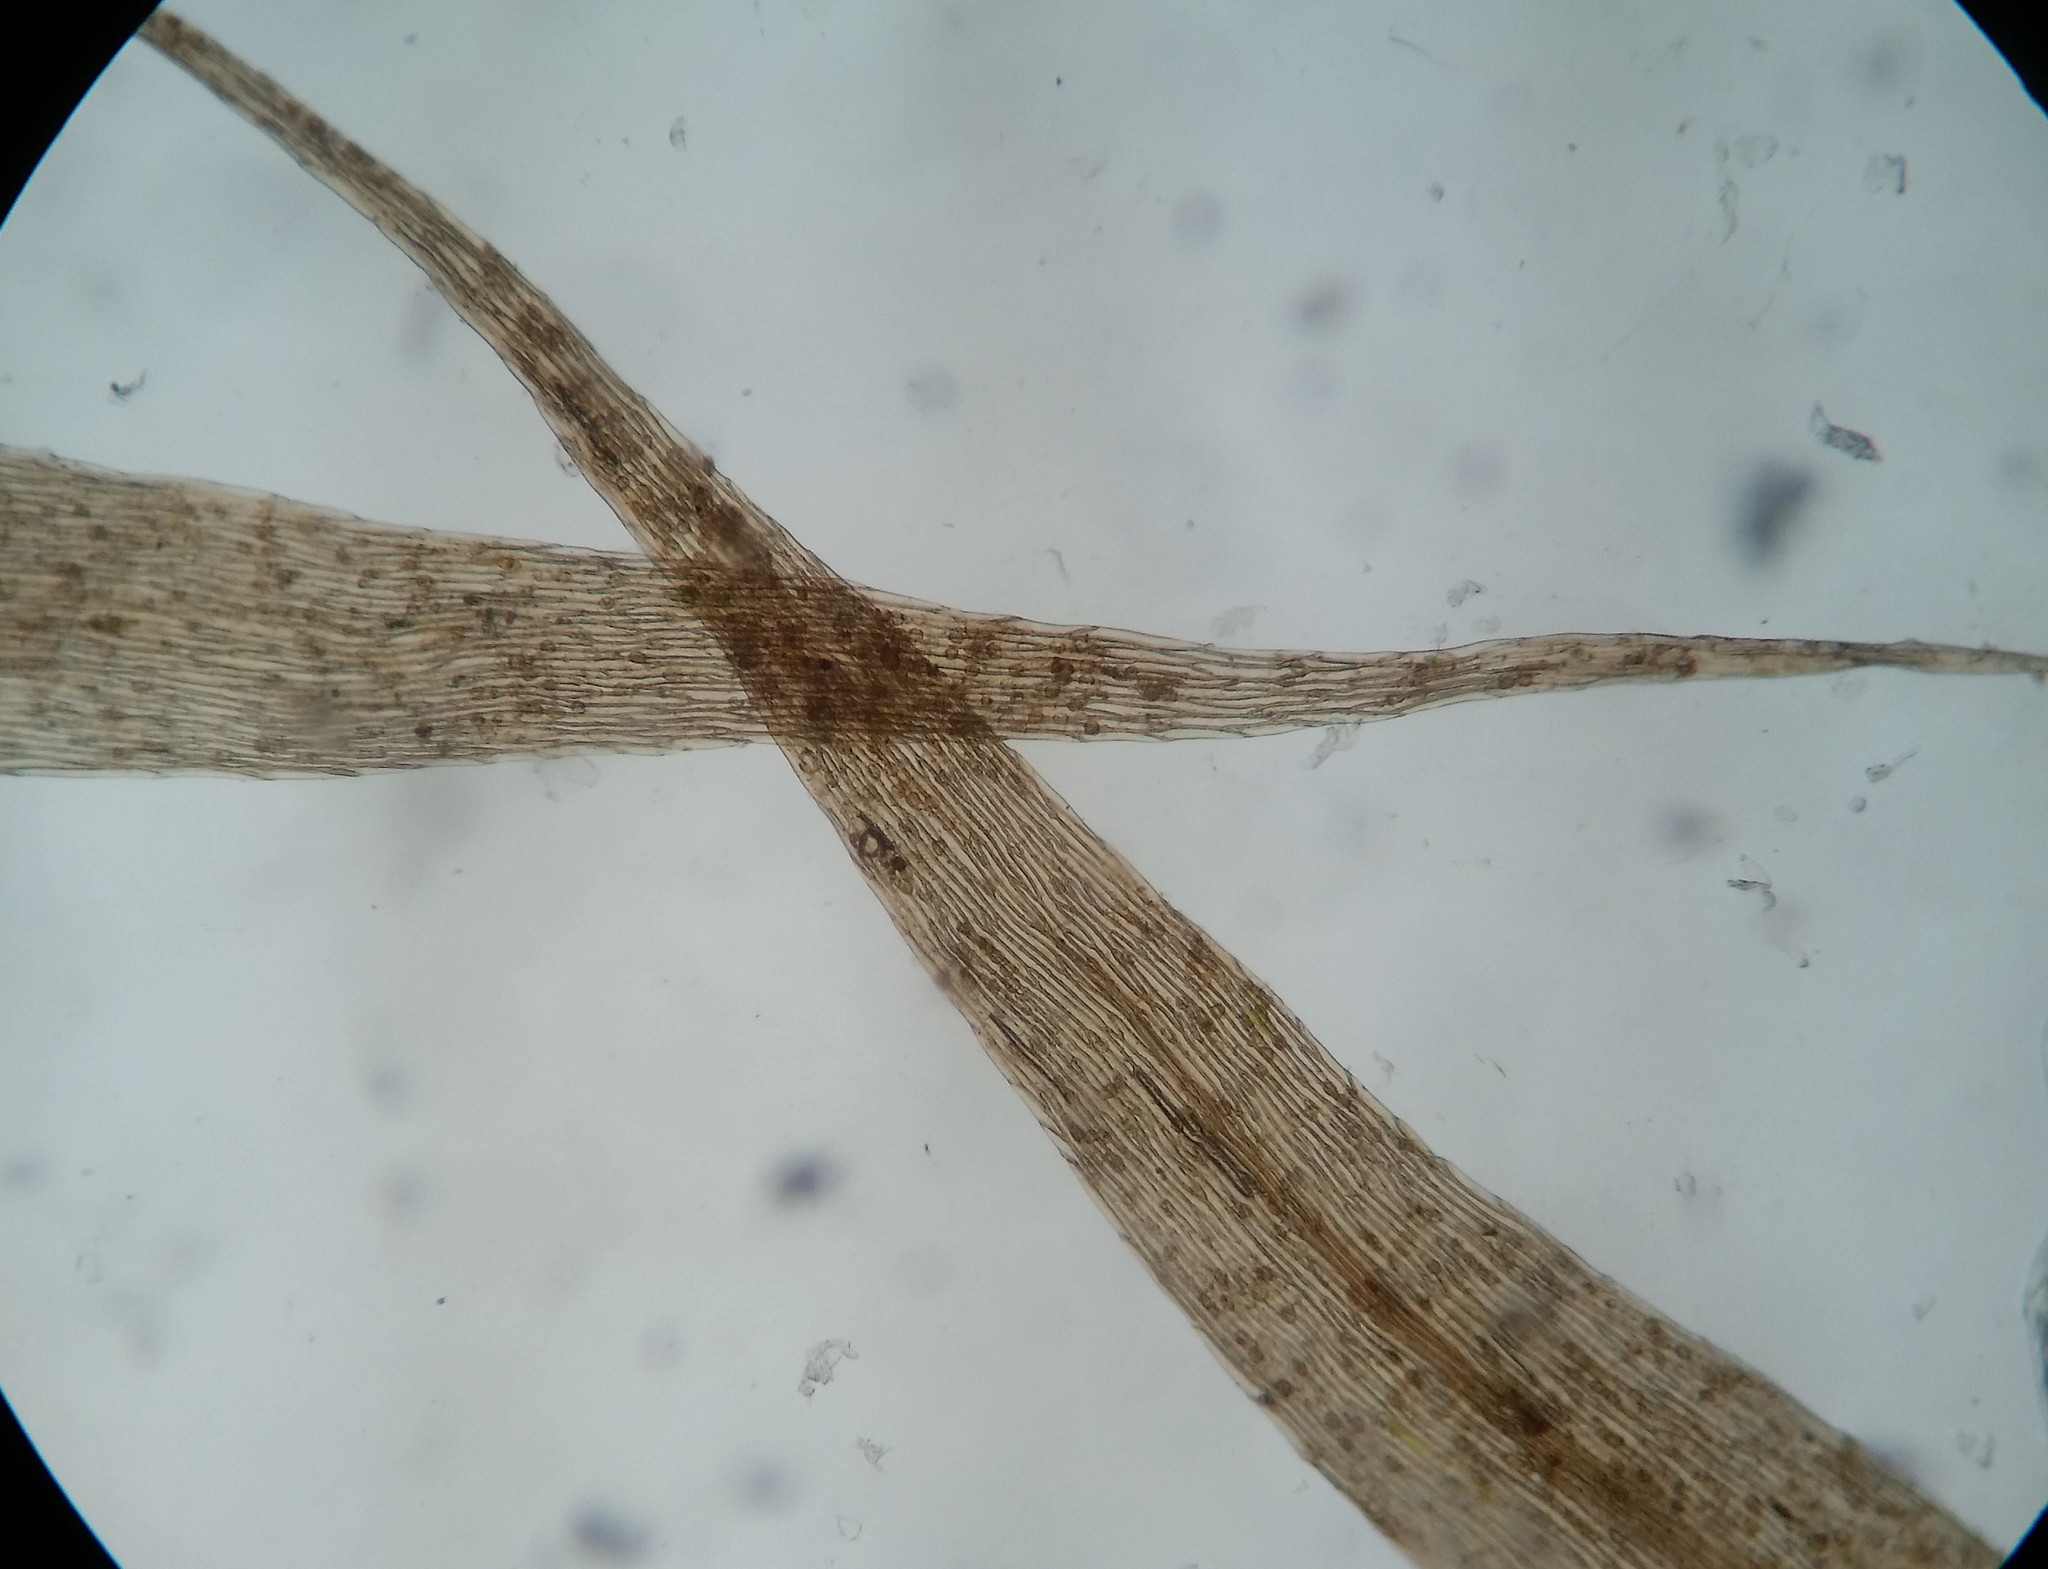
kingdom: Plantae
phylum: Bryophyta
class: Bryopsida
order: Hypnales
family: Amblystegiaceae
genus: Leptodictyum
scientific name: Leptodictyum riparium
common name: Riparian feather moss
